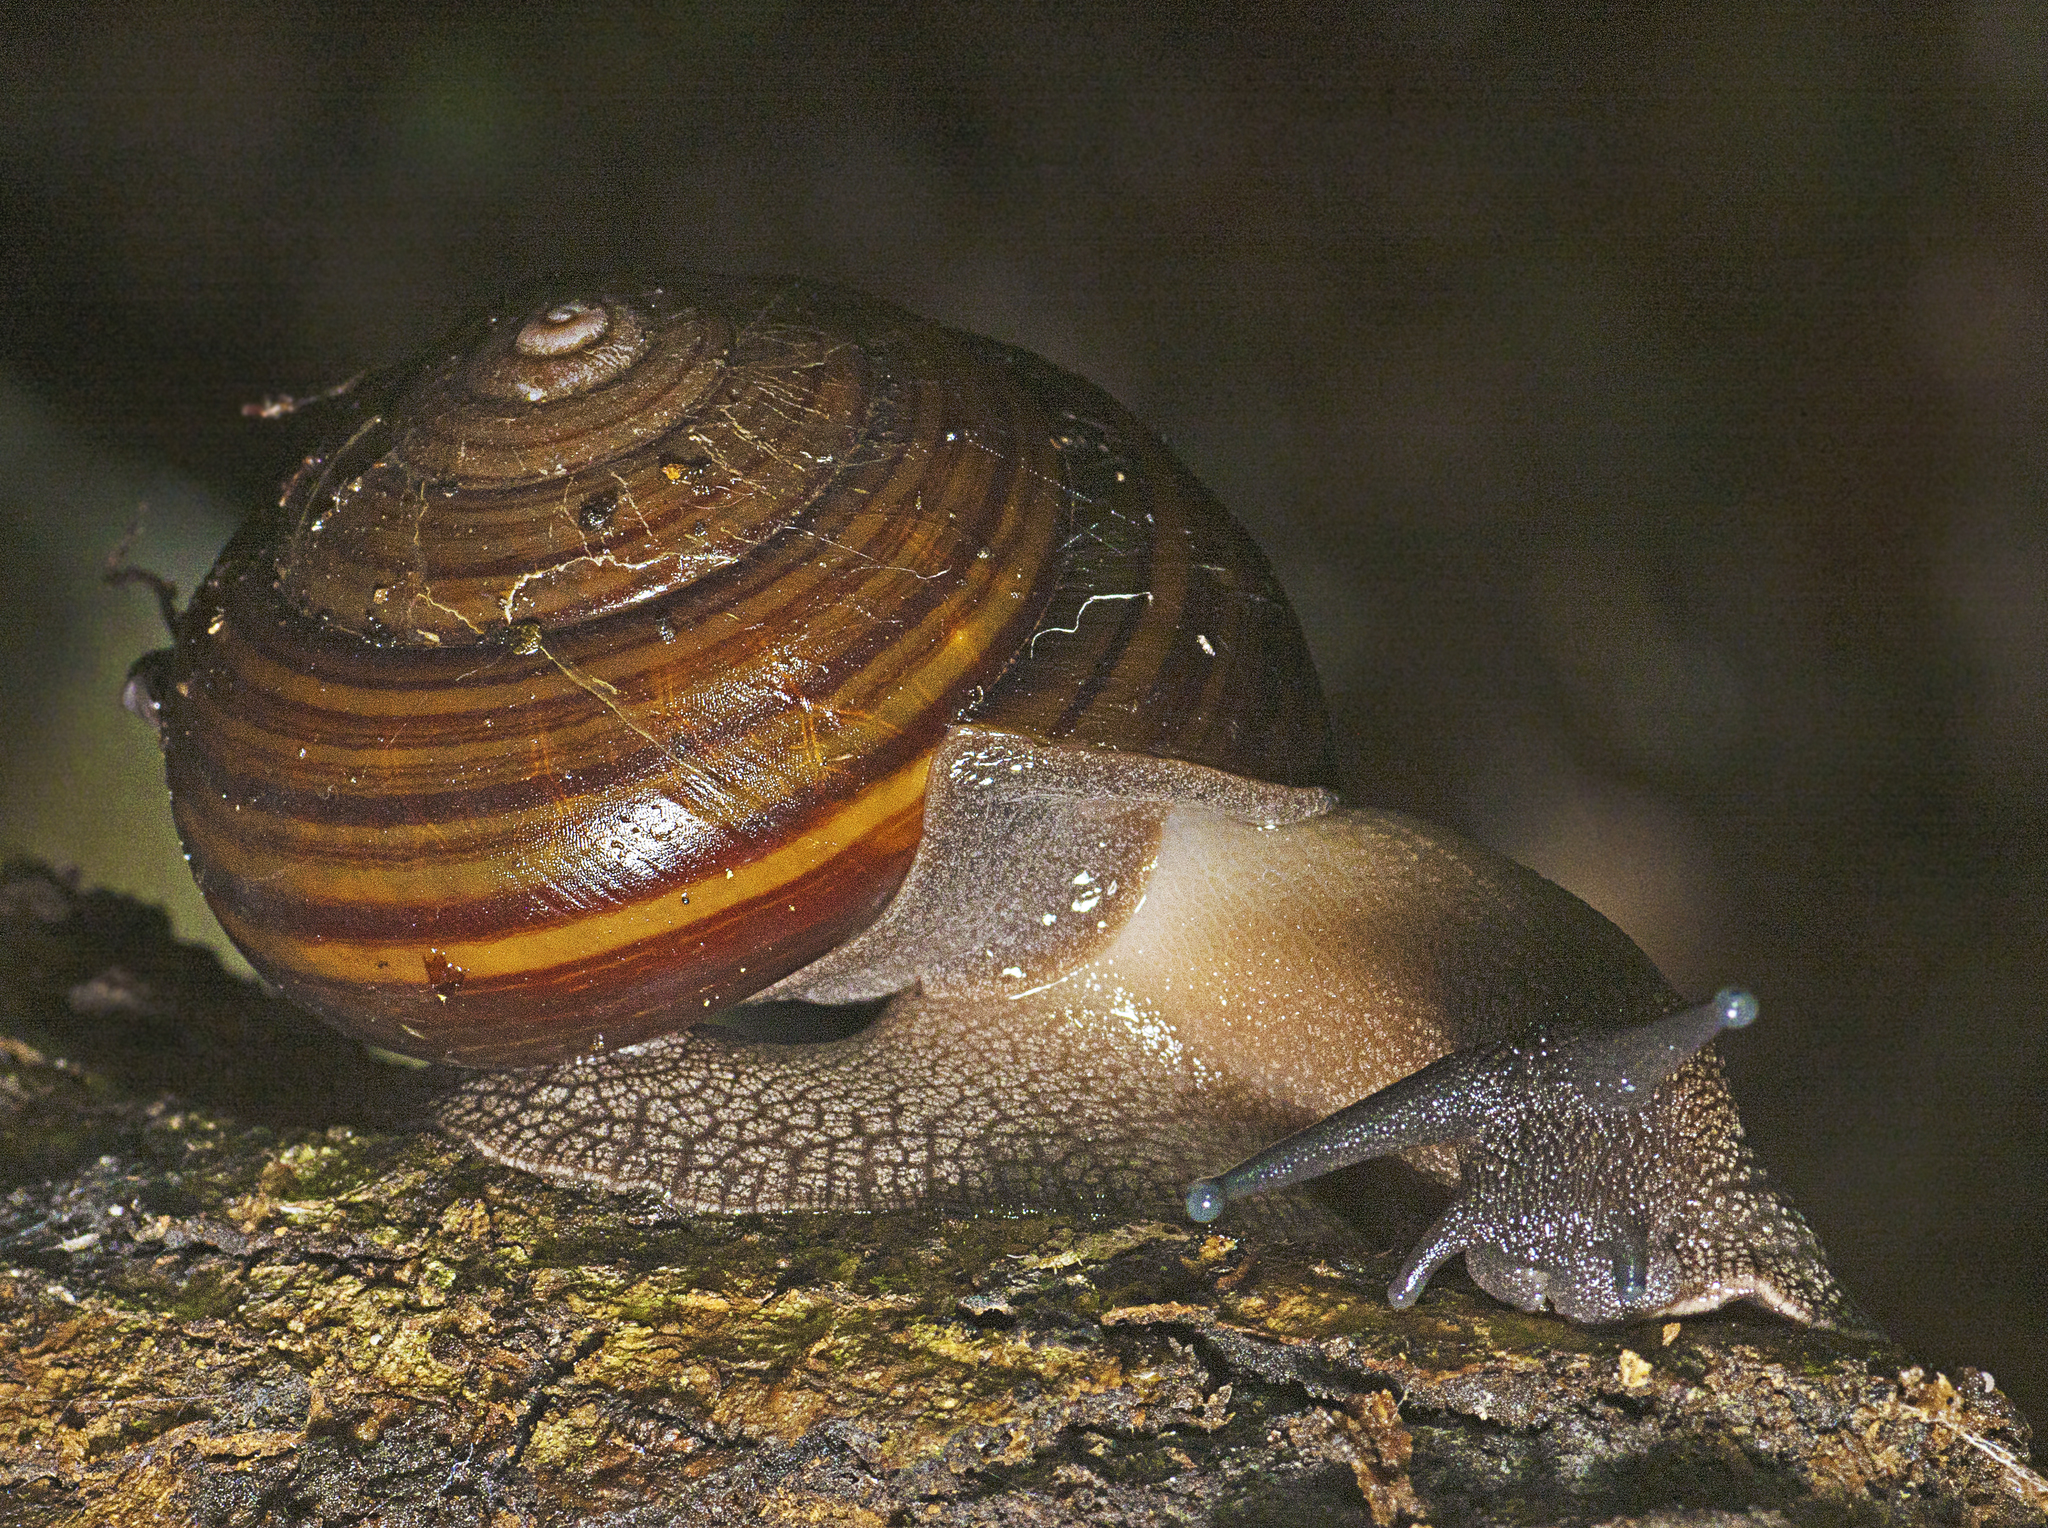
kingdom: Animalia
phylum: Mollusca
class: Gastropoda
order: Stylommatophora
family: Camaenidae
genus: Sphaerospira
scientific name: Sphaerospira fraseri
